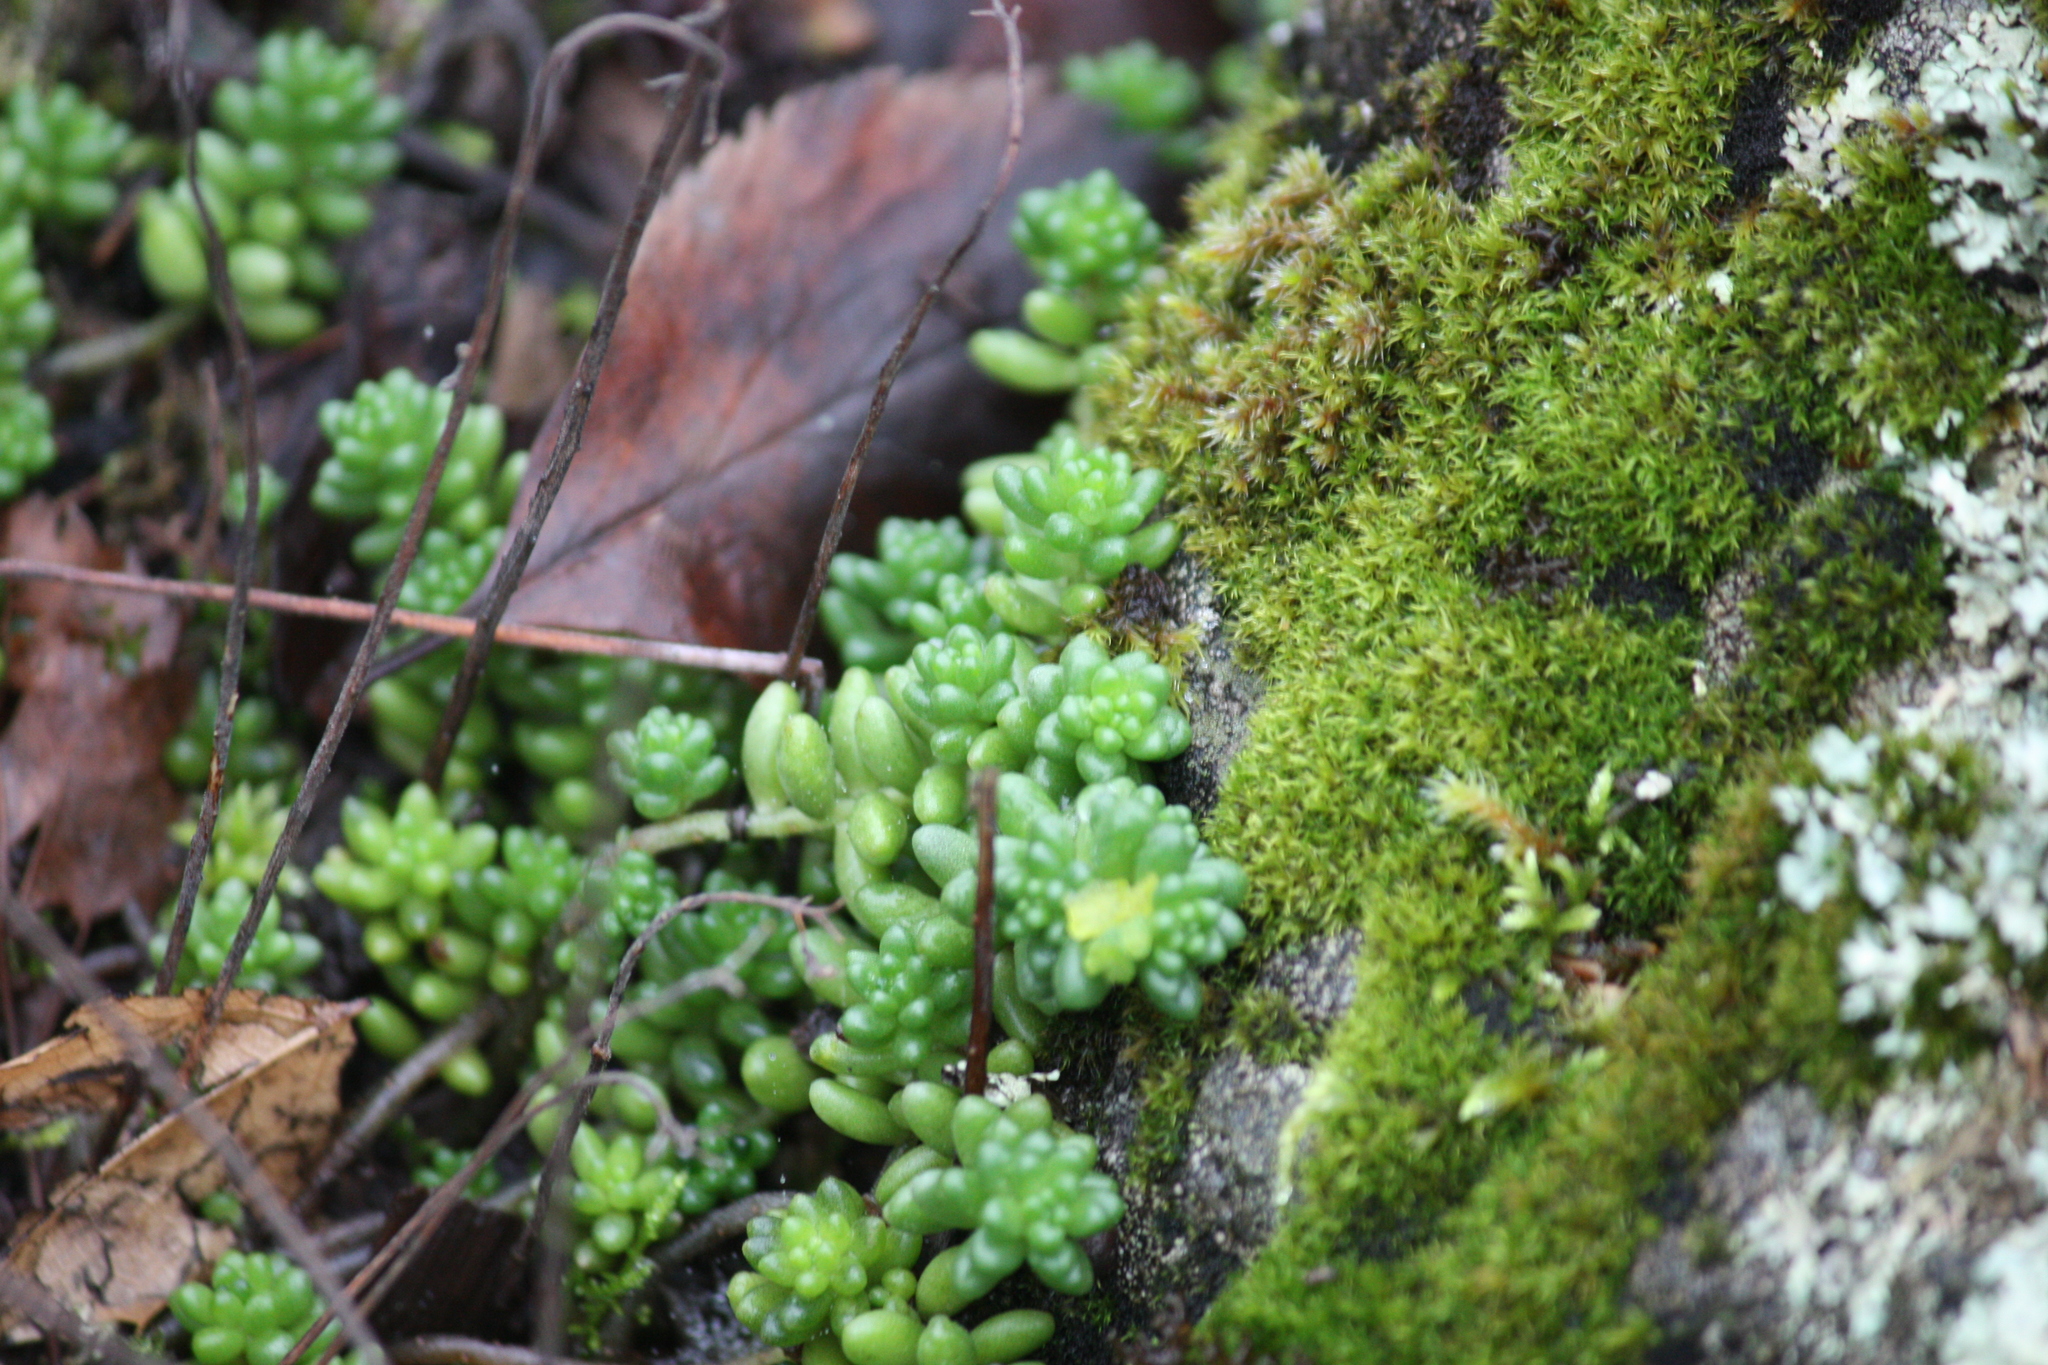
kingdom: Plantae
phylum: Tracheophyta
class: Magnoliopsida
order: Saxifragales
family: Crassulaceae
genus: Sedum
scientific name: Sedum album
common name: White stonecrop
